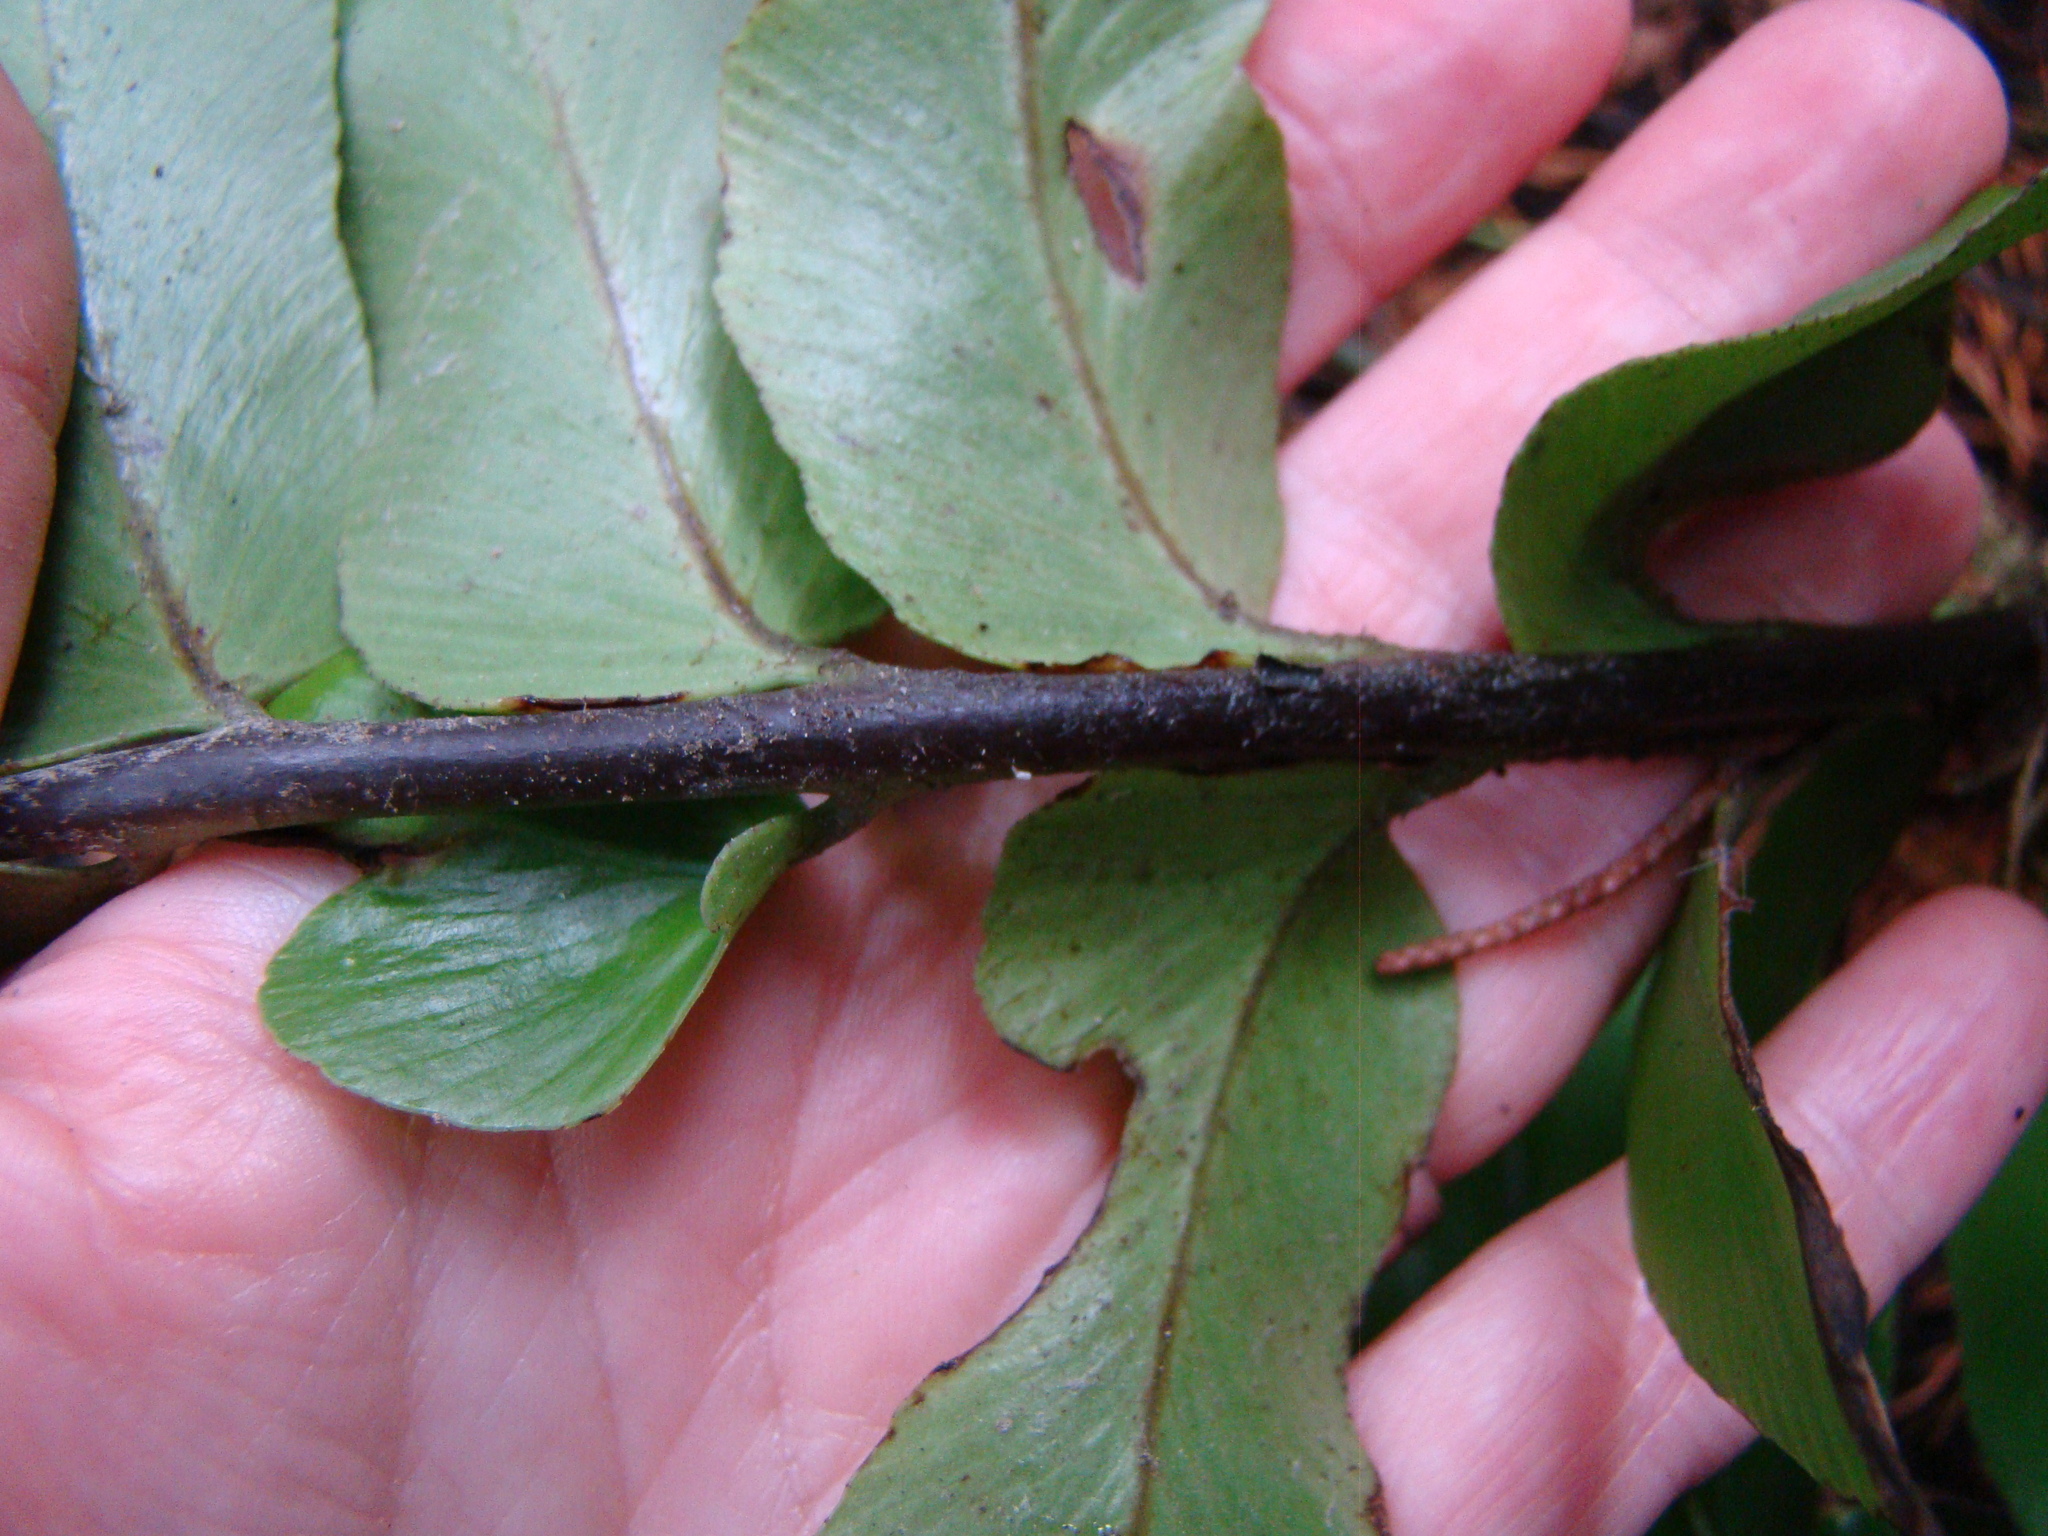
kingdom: Plantae
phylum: Tracheophyta
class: Polypodiopsida
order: Polypodiales
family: Aspleniaceae
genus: Asplenium
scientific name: Asplenium oblongifolium
